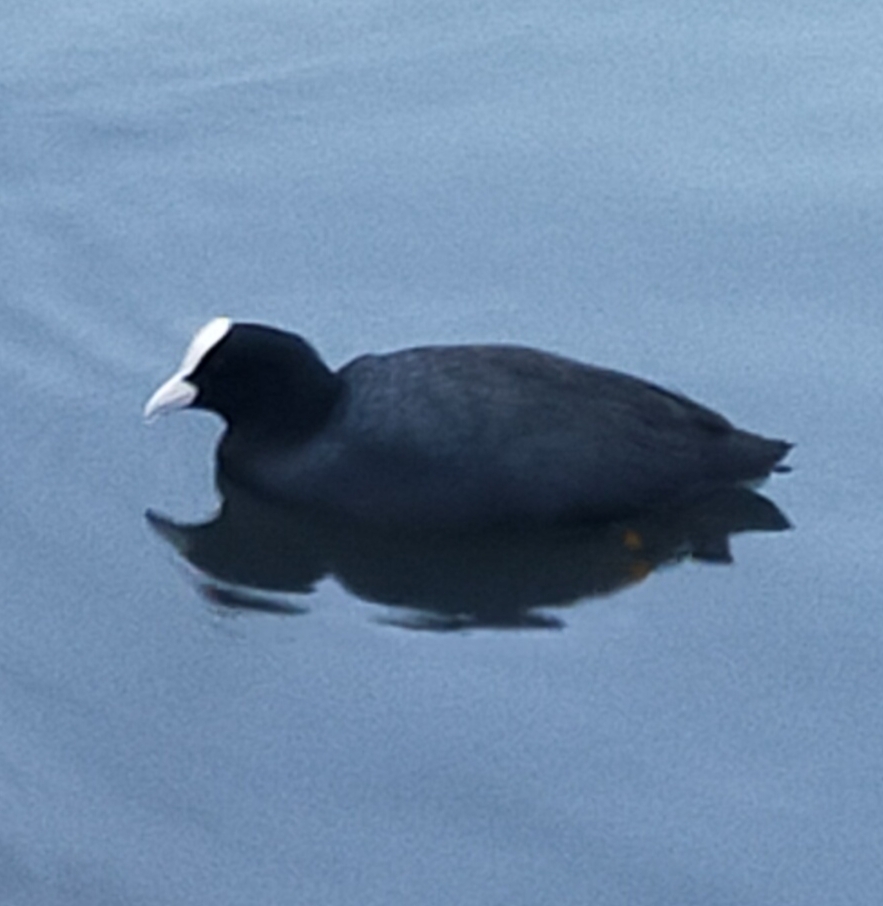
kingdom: Animalia
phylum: Chordata
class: Aves
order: Gruiformes
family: Rallidae
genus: Fulica
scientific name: Fulica atra
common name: Eurasian coot
